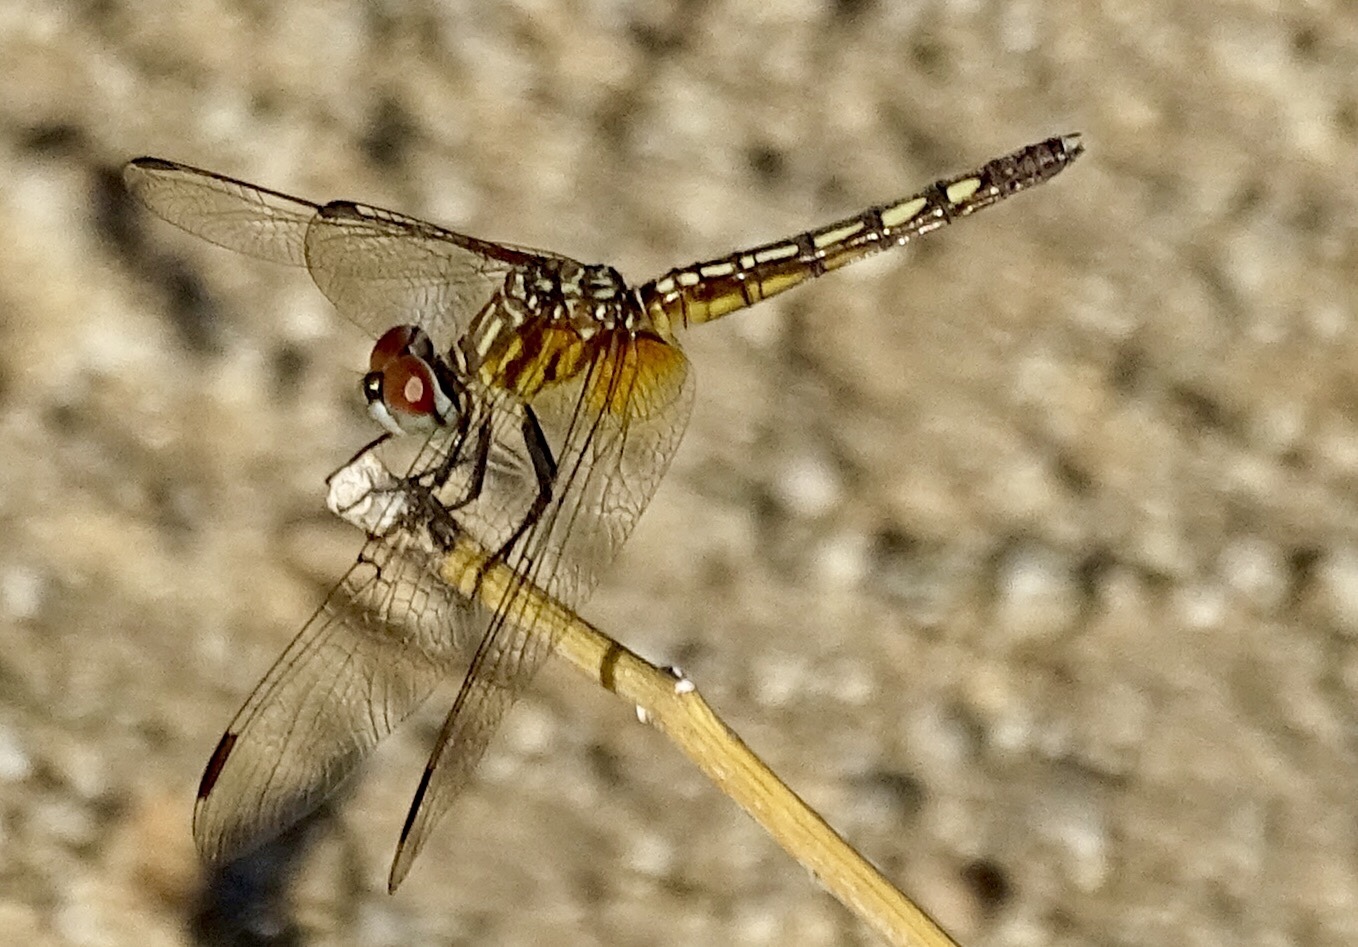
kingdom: Animalia
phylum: Arthropoda
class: Insecta
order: Odonata
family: Libellulidae
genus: Pachydiplax
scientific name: Pachydiplax longipennis
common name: Blue dasher
